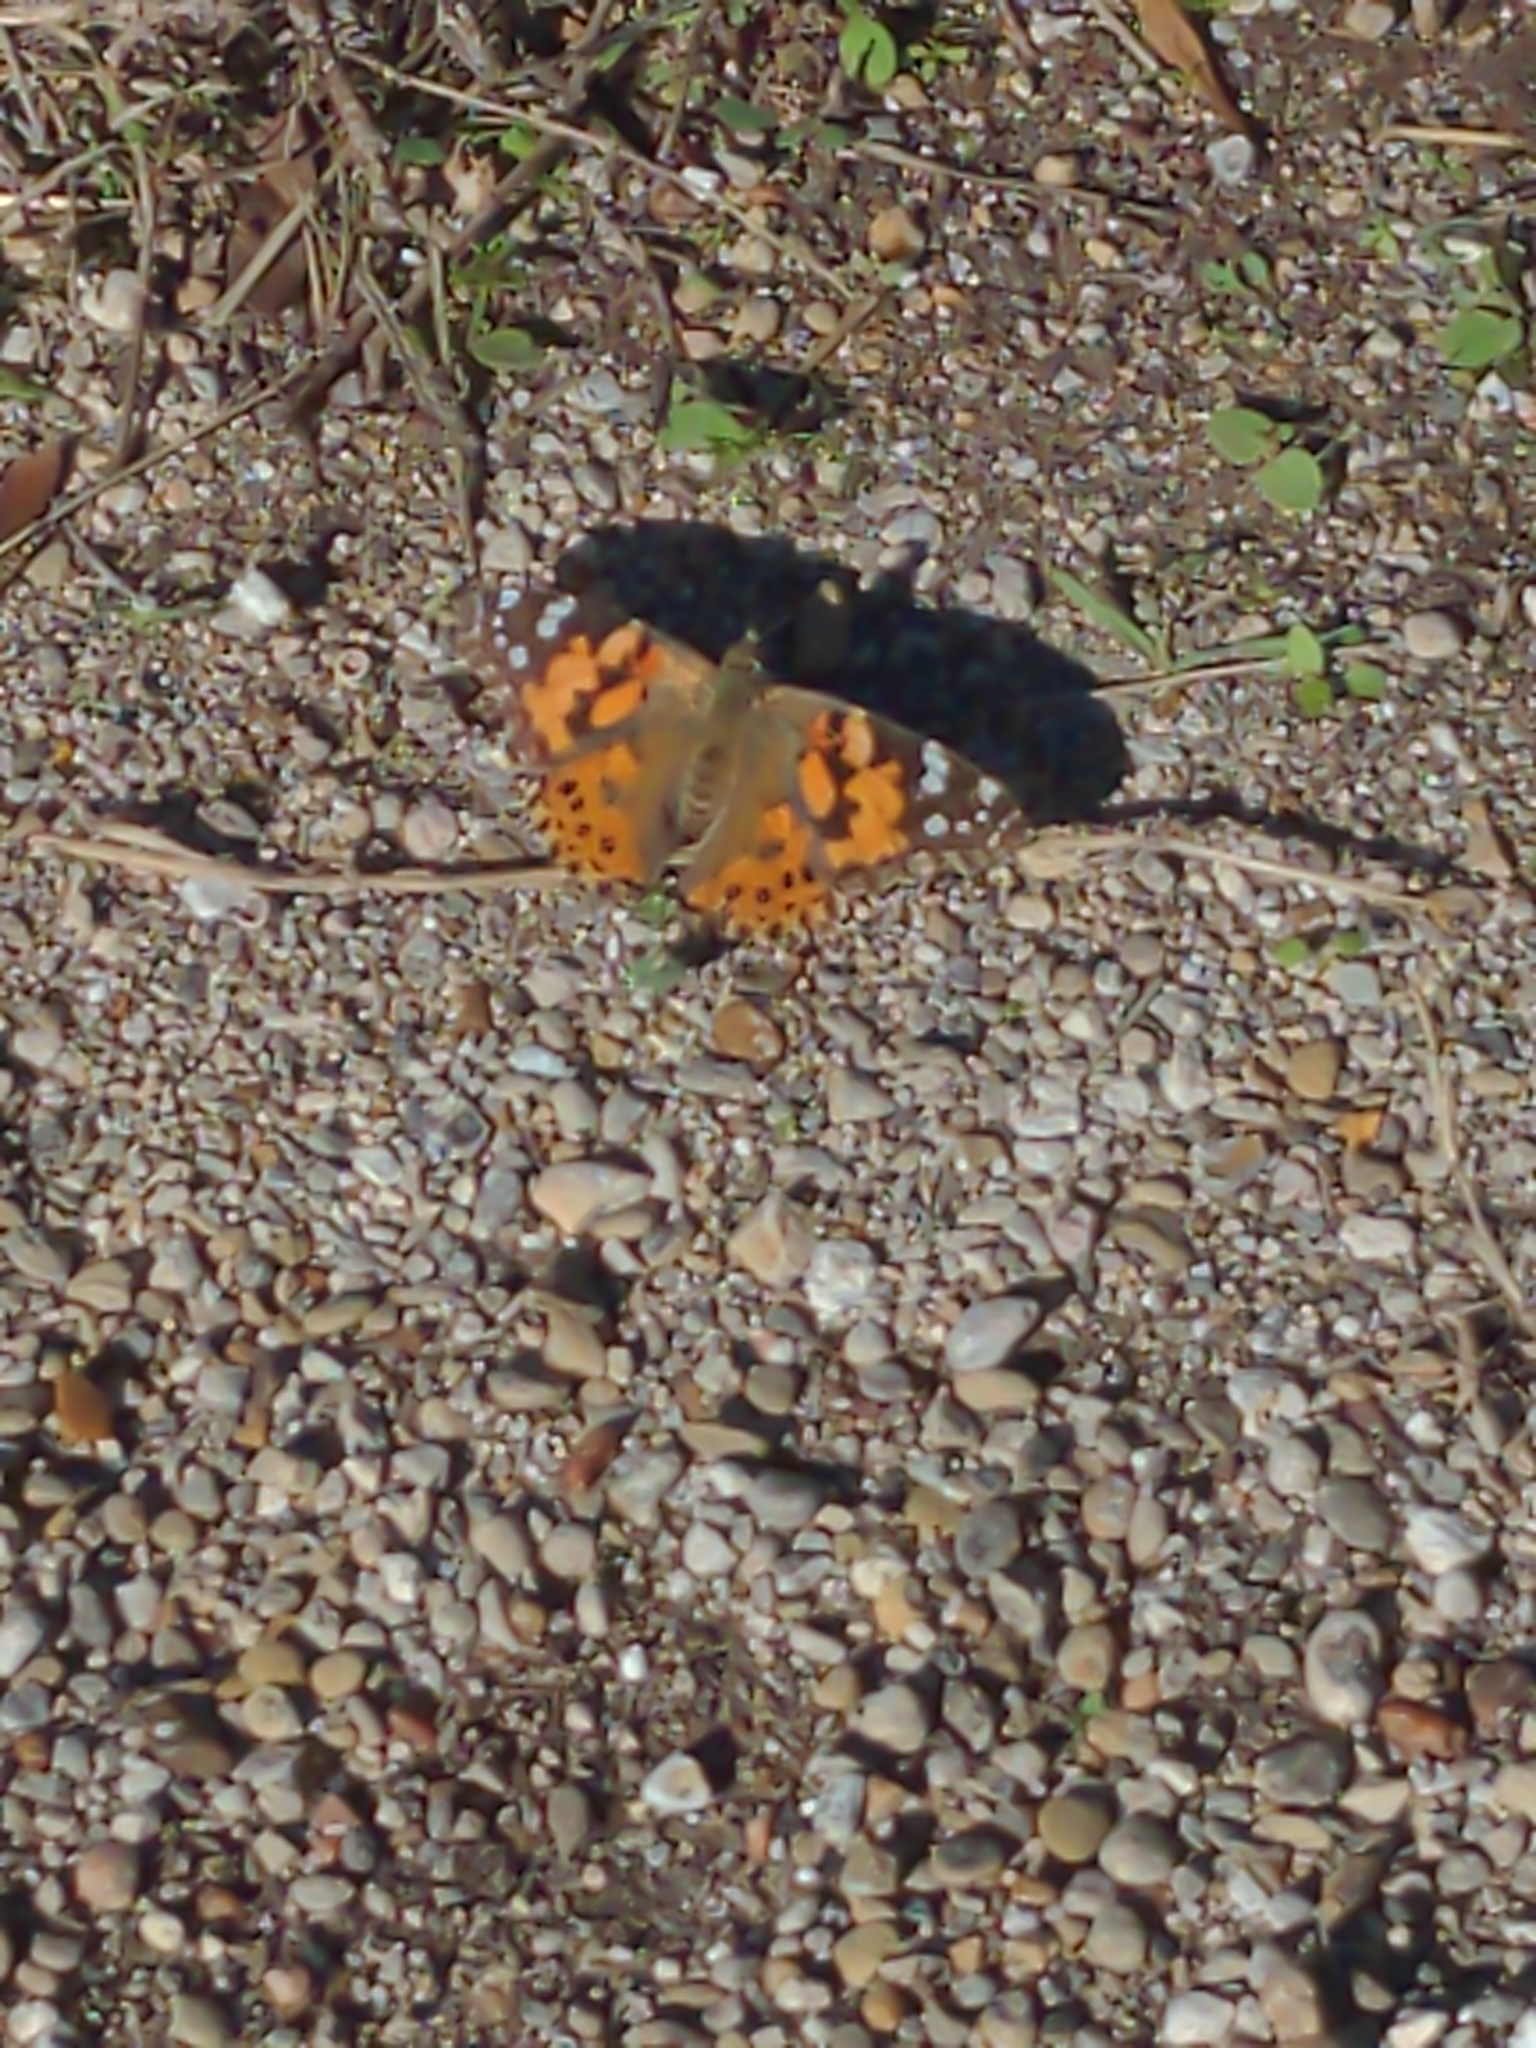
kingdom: Animalia
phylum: Arthropoda
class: Insecta
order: Lepidoptera
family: Nymphalidae
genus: Vanessa
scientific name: Vanessa cardui
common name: Painted lady
